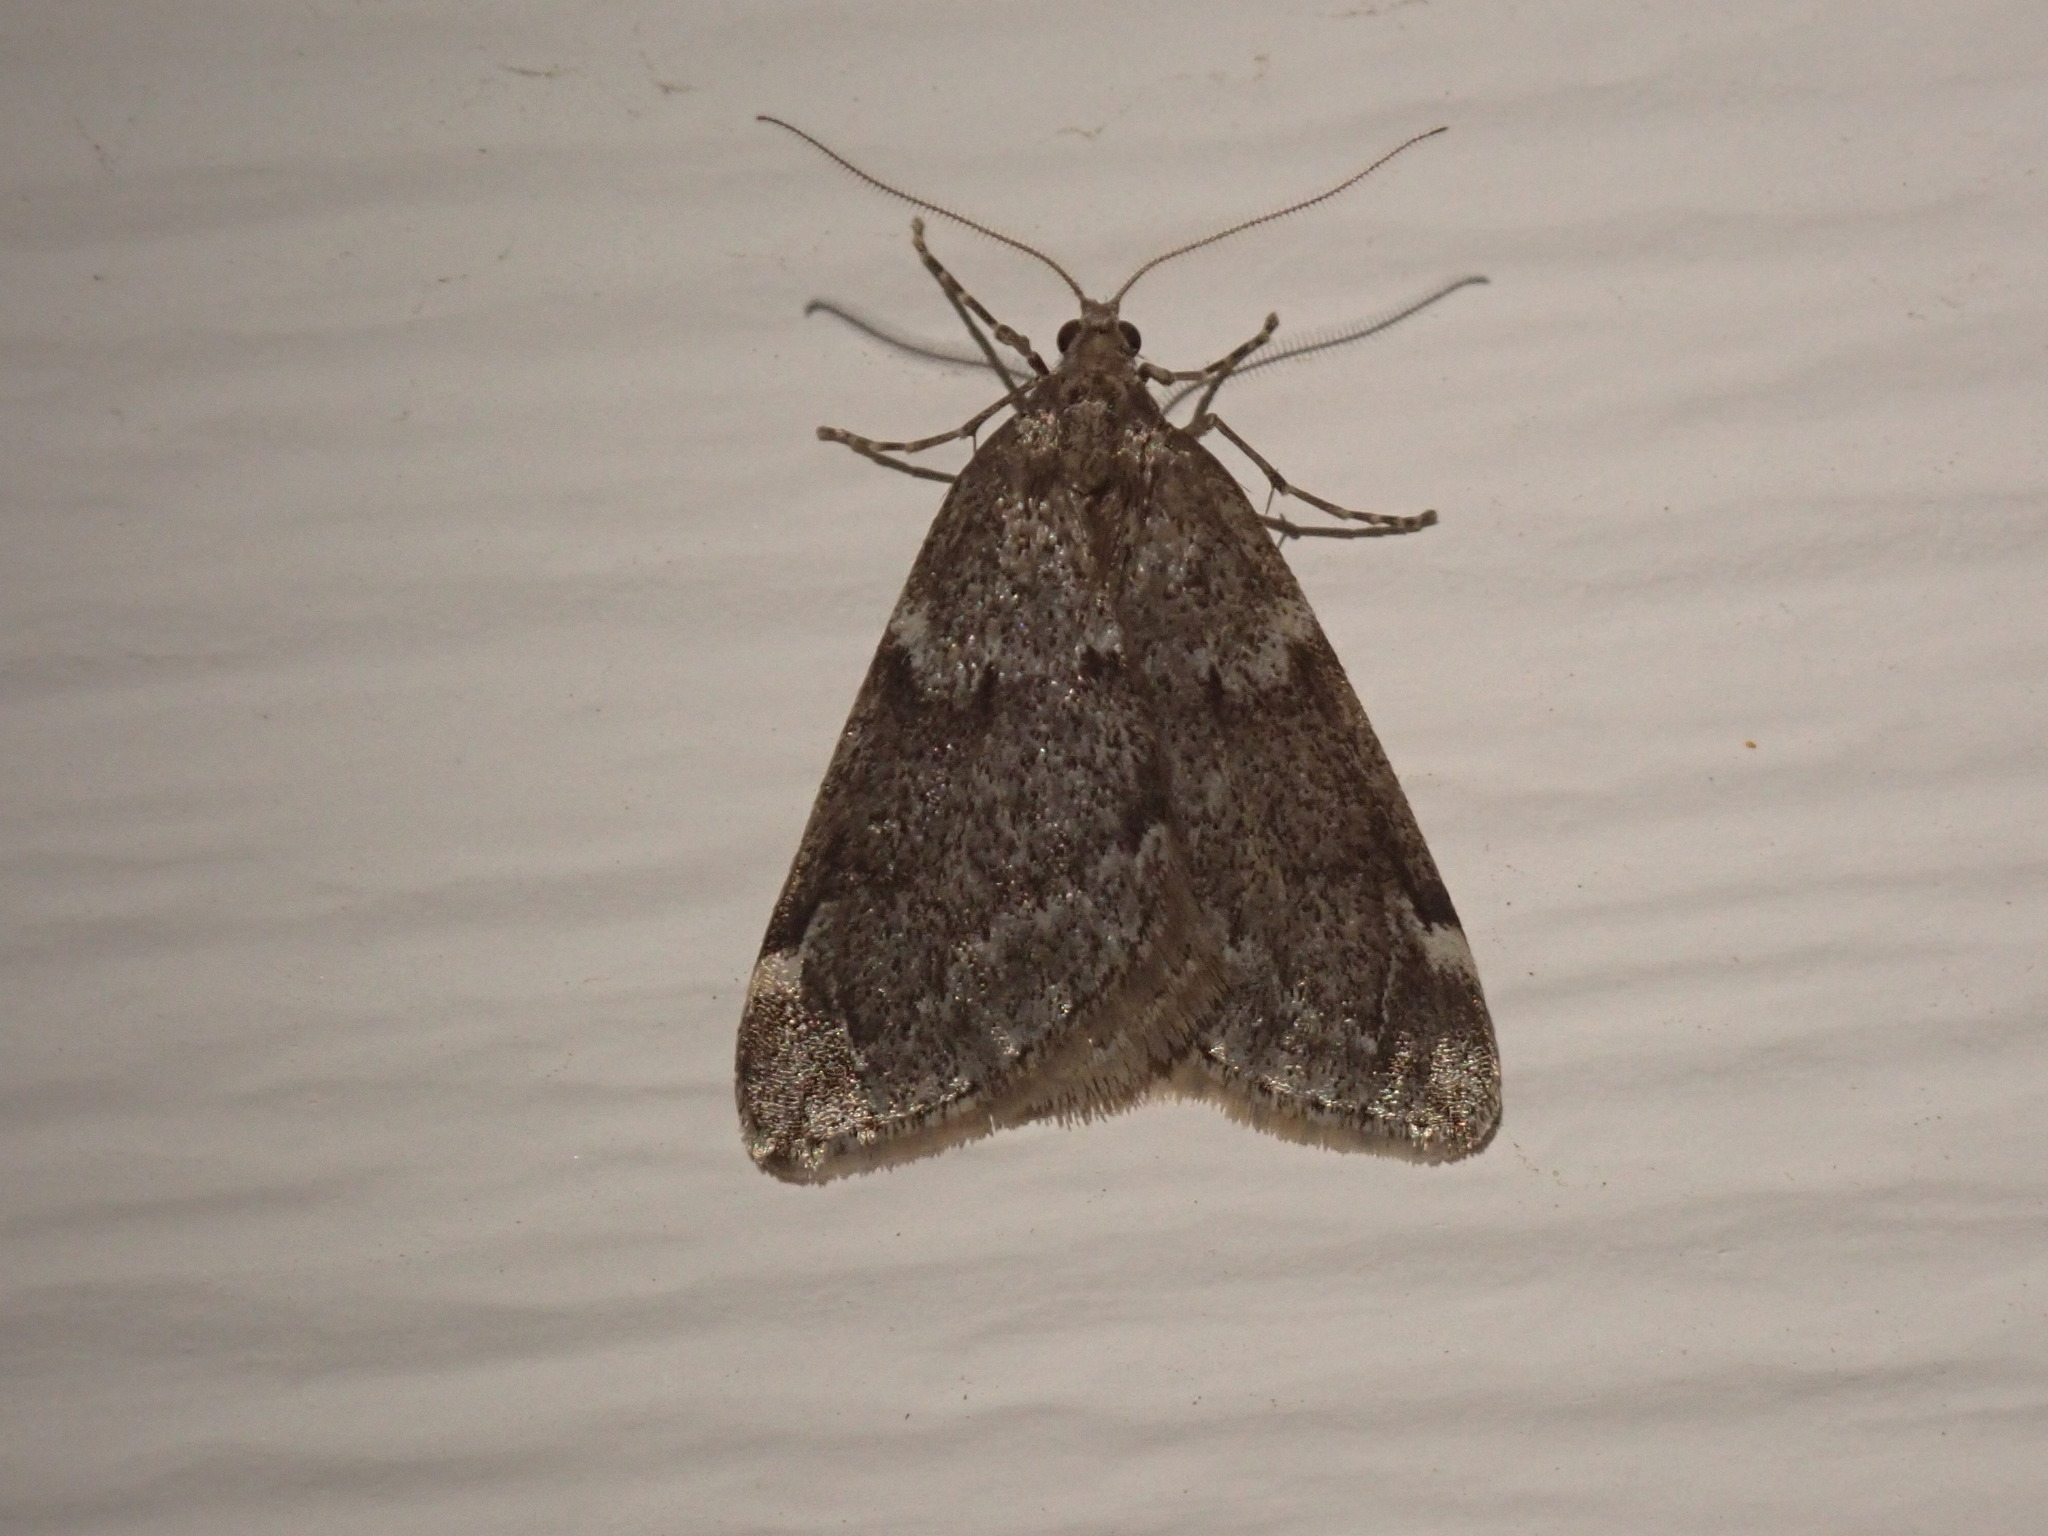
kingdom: Animalia
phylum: Arthropoda
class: Insecta
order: Lepidoptera
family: Geometridae
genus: Alsophila
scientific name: Alsophila pometaria
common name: Fall cankerworm
